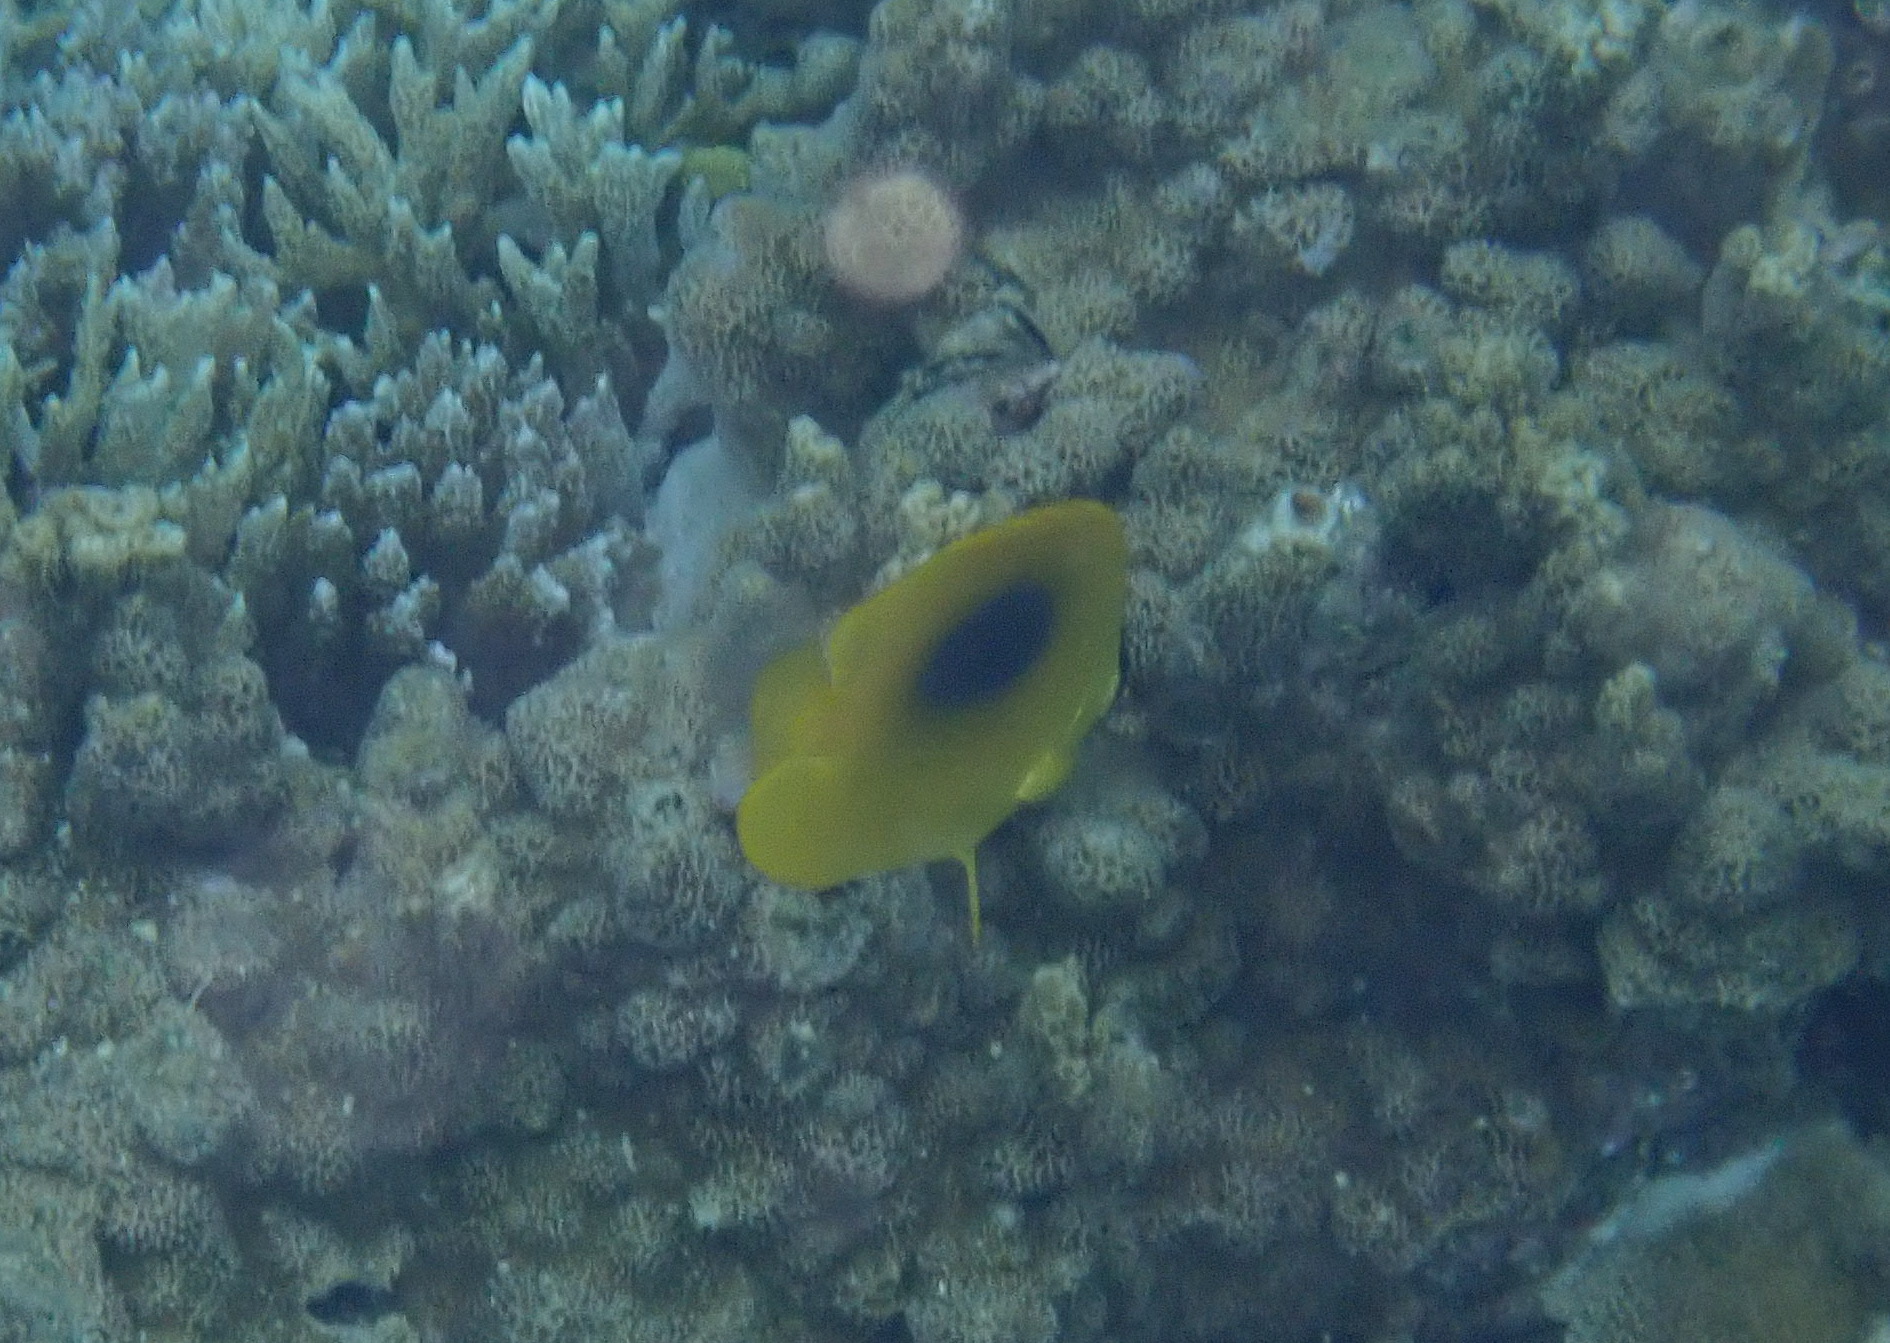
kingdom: Animalia
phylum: Chordata
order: Perciformes
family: Chaetodontidae
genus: Chaetodon
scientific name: Chaetodon speculum
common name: Mirror butterflyfish
